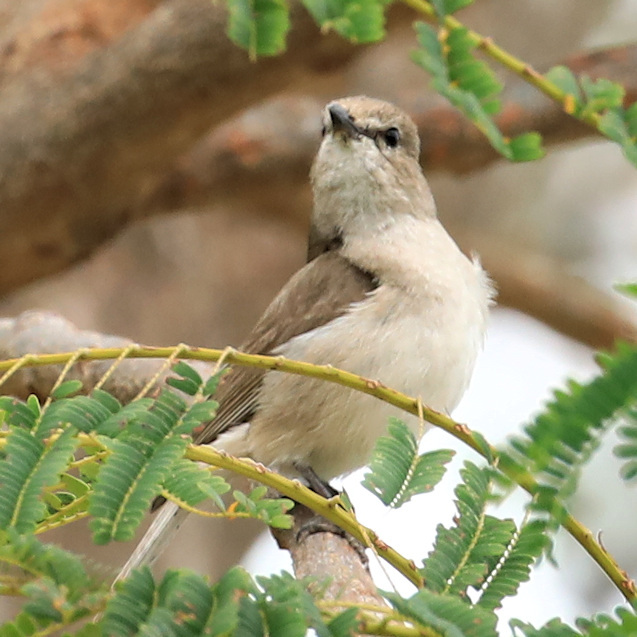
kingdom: Animalia
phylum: Chordata
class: Aves
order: Passeriformes
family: Muscicapidae
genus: Bradornis
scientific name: Bradornis pallidus
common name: Pale flycatcher
